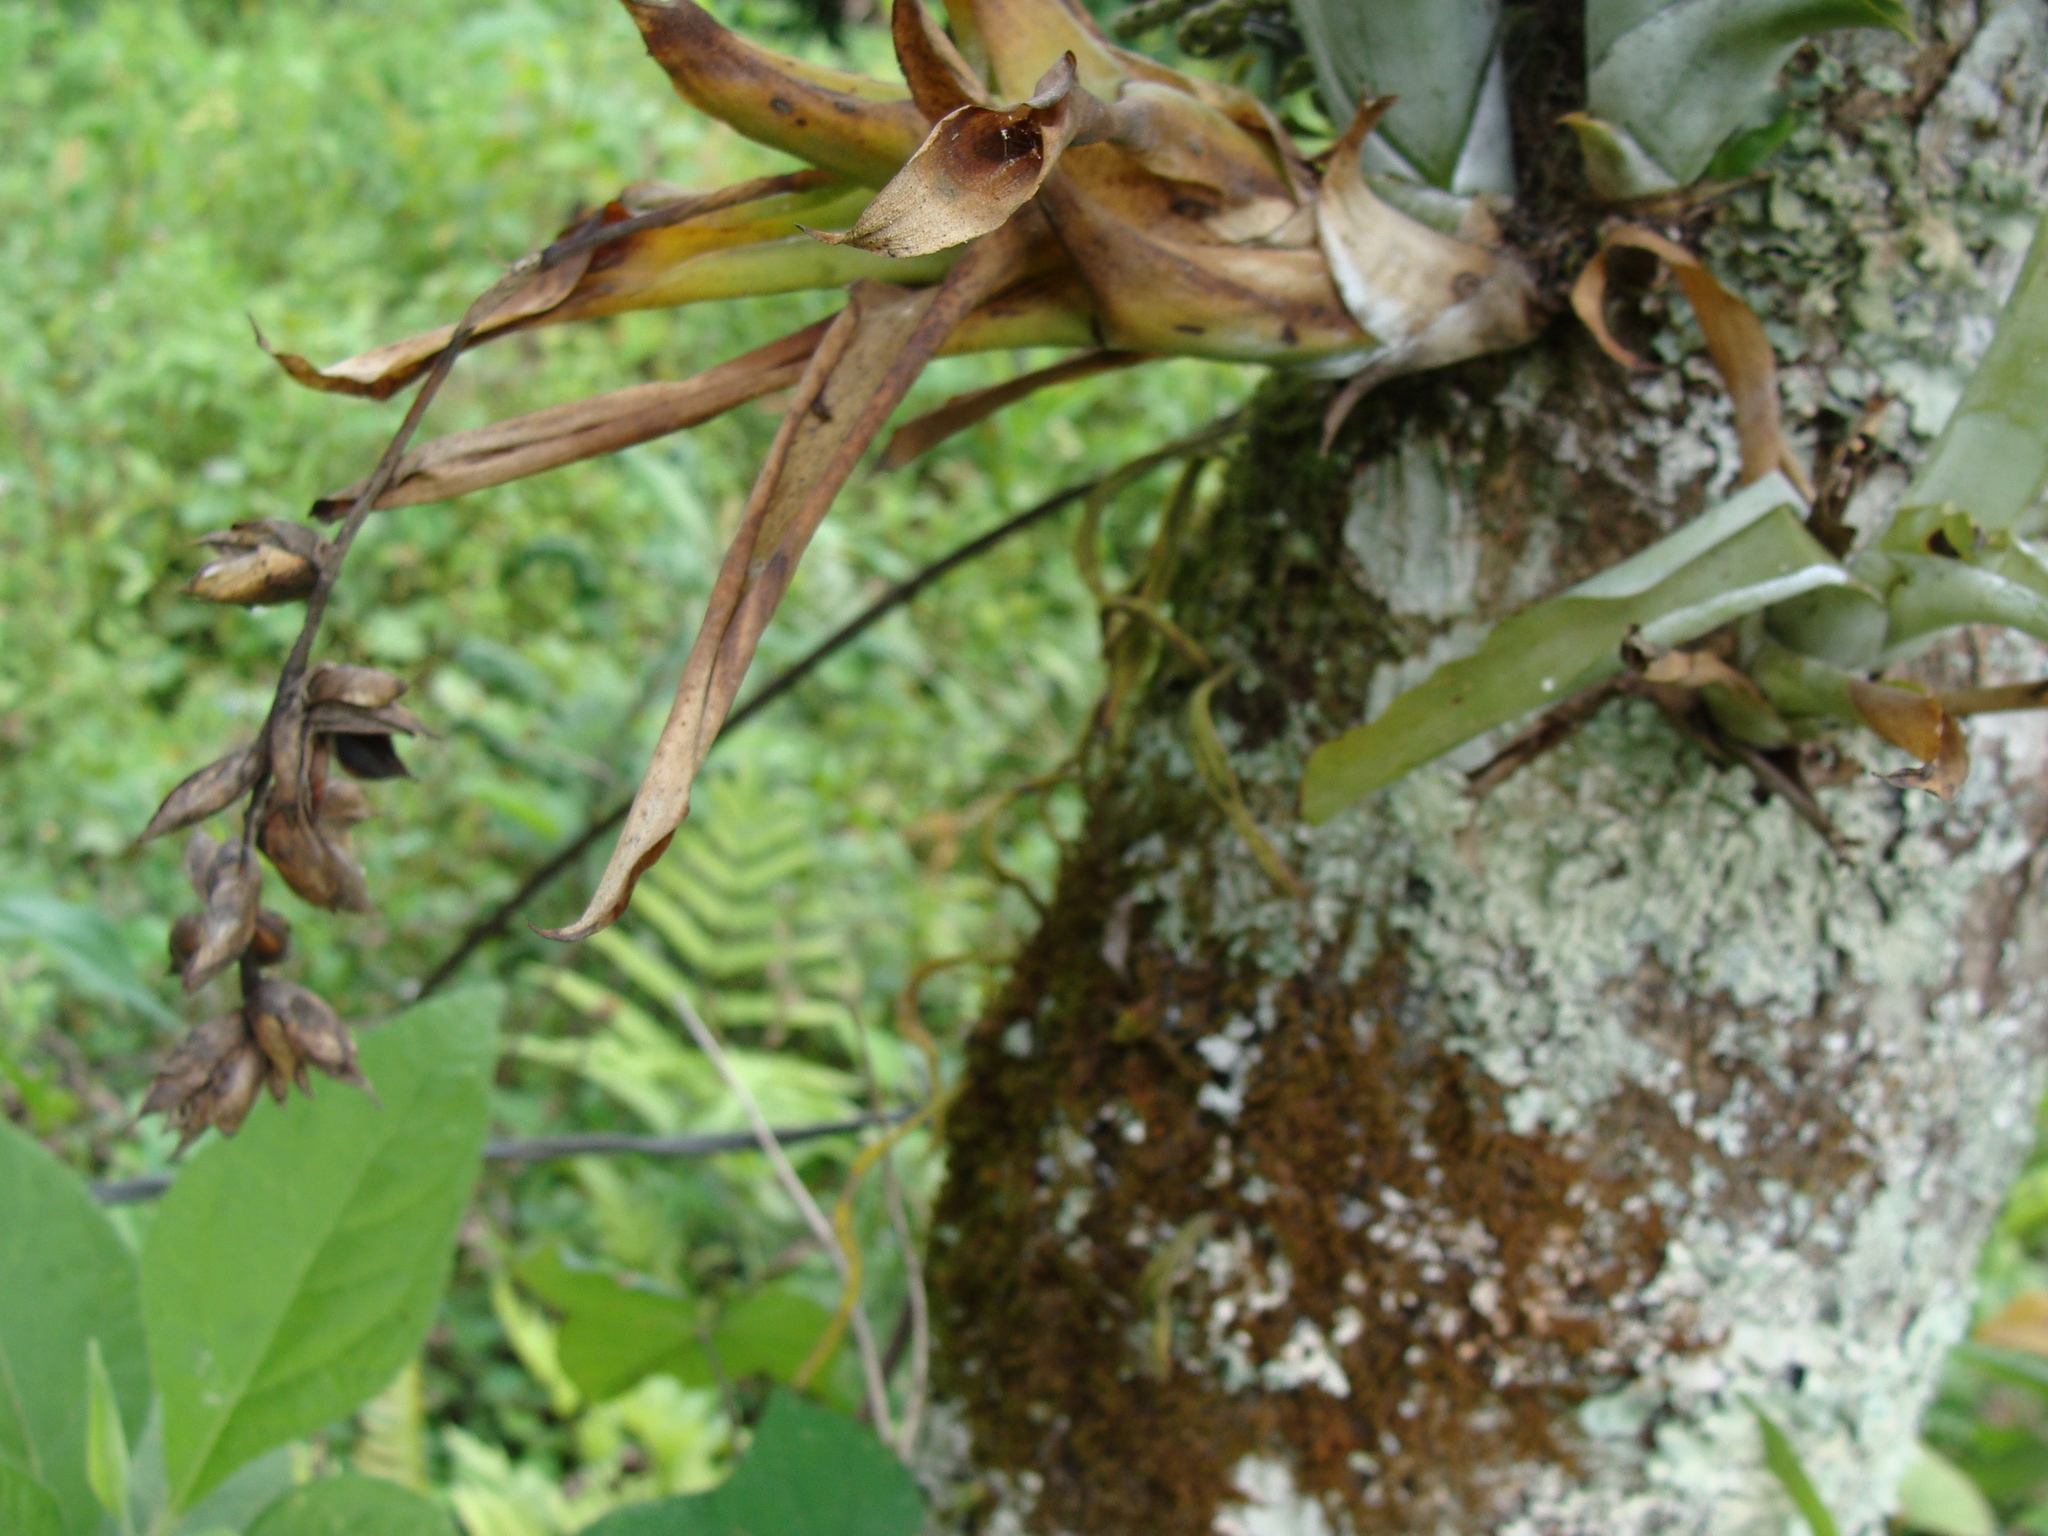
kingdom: Plantae
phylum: Tracheophyta
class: Liliopsida
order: Poales
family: Bromeliaceae
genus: Catopsis
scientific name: Catopsis nutans
